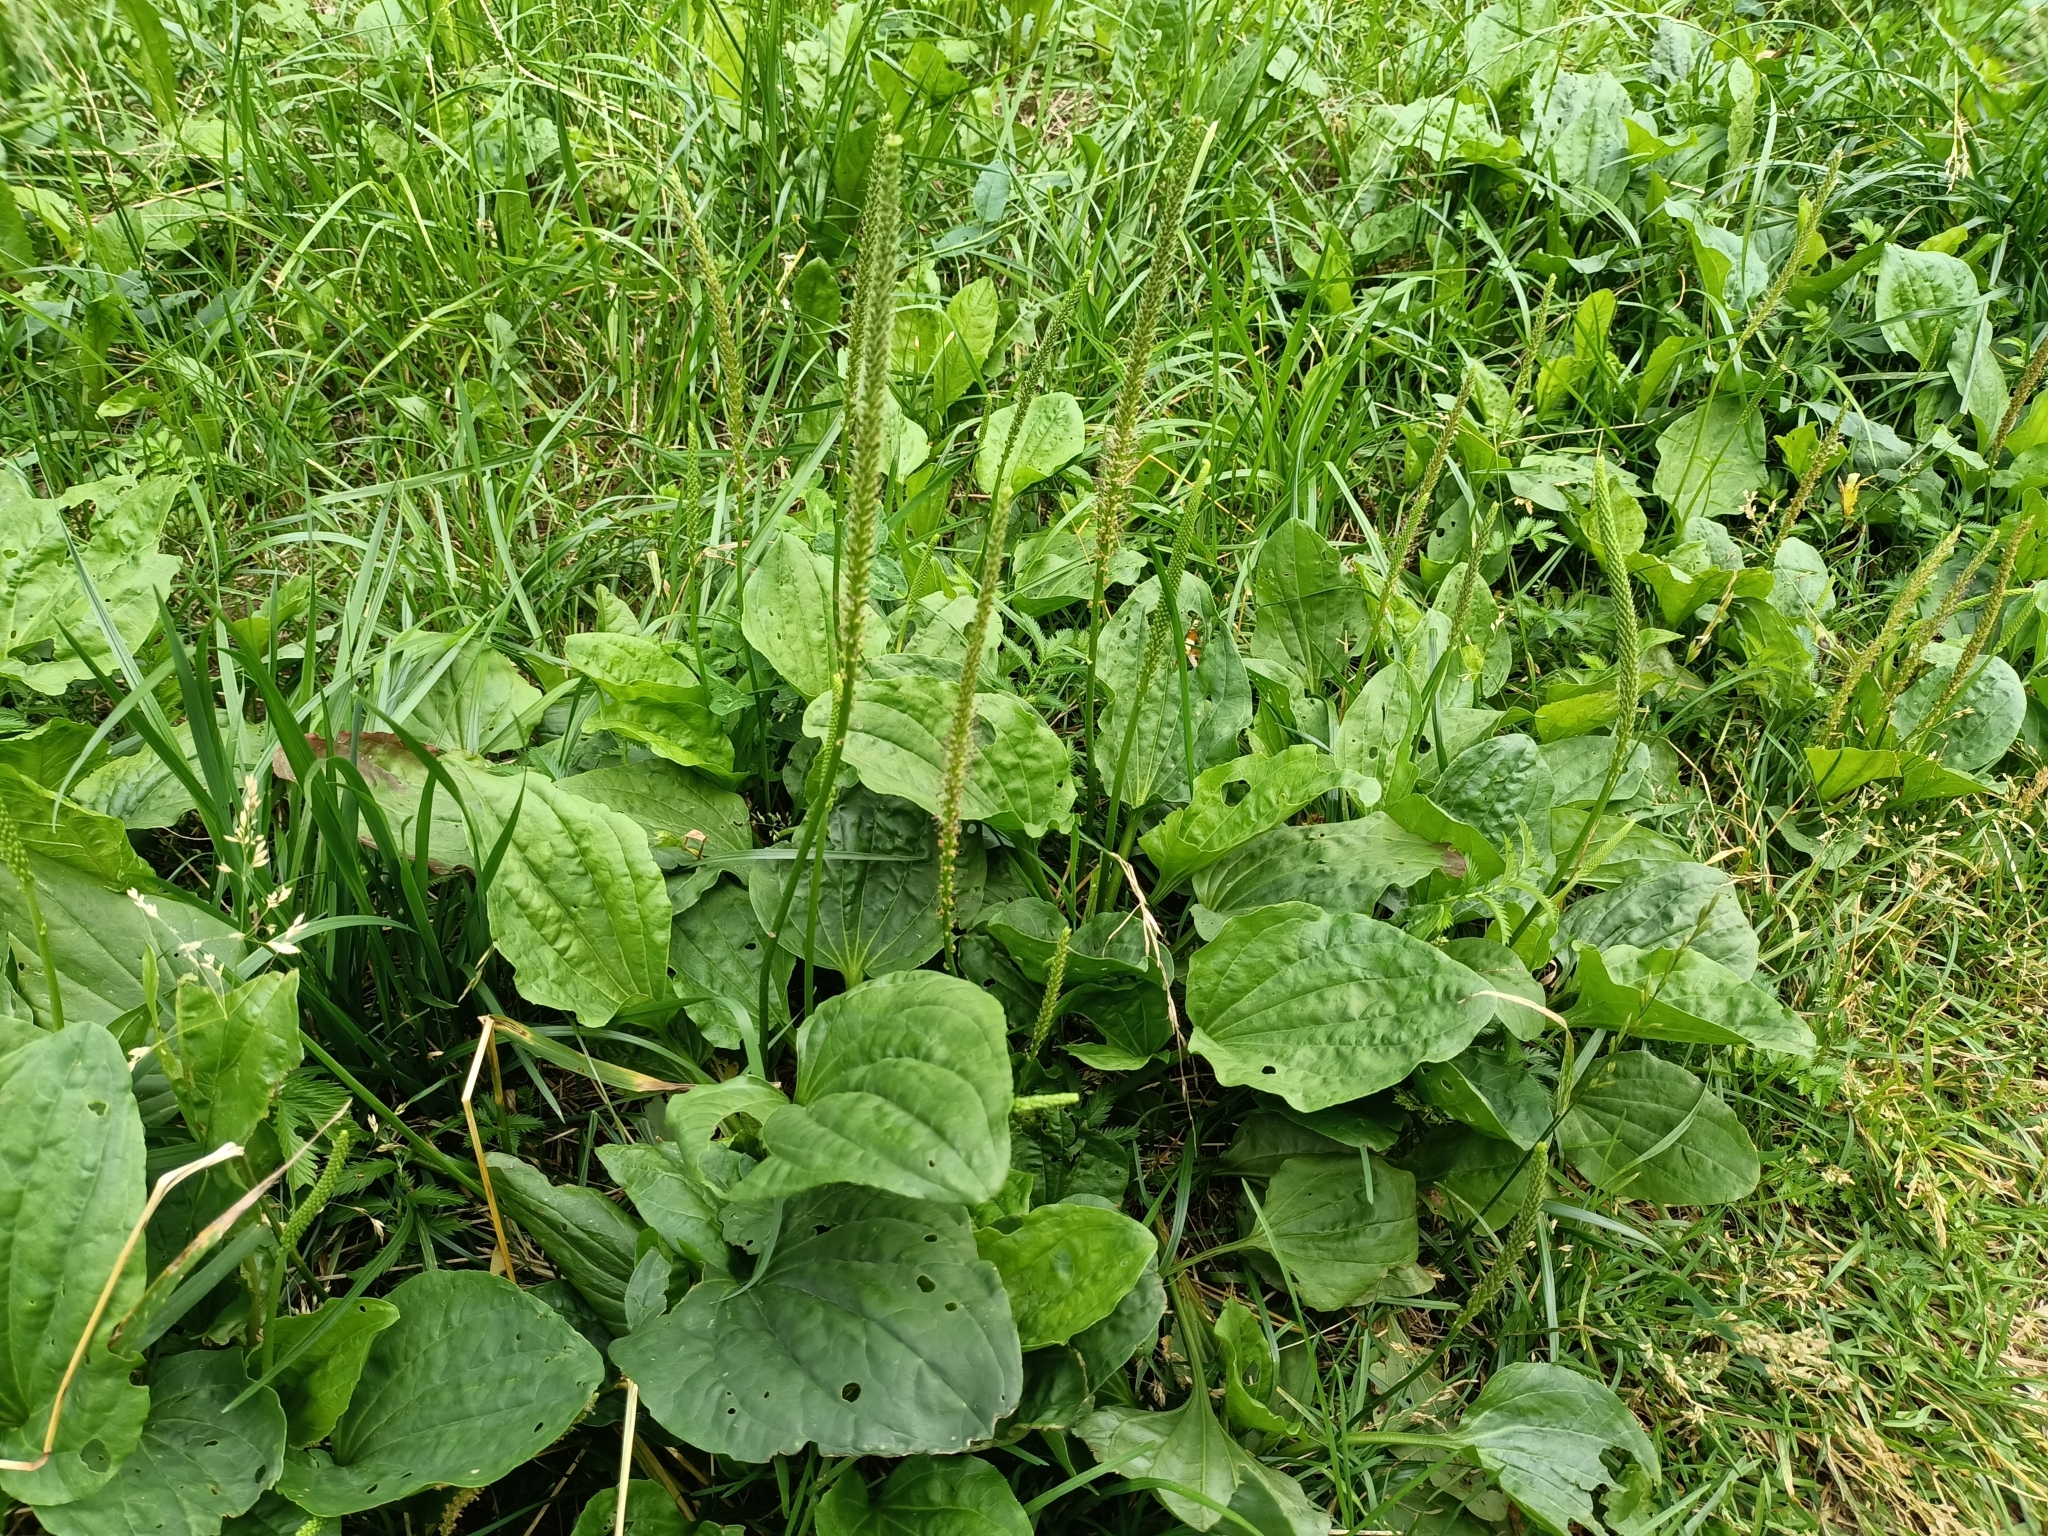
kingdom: Plantae
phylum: Tracheophyta
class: Magnoliopsida
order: Lamiales
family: Plantaginaceae
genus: Plantago
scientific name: Plantago major
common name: Common plantain
